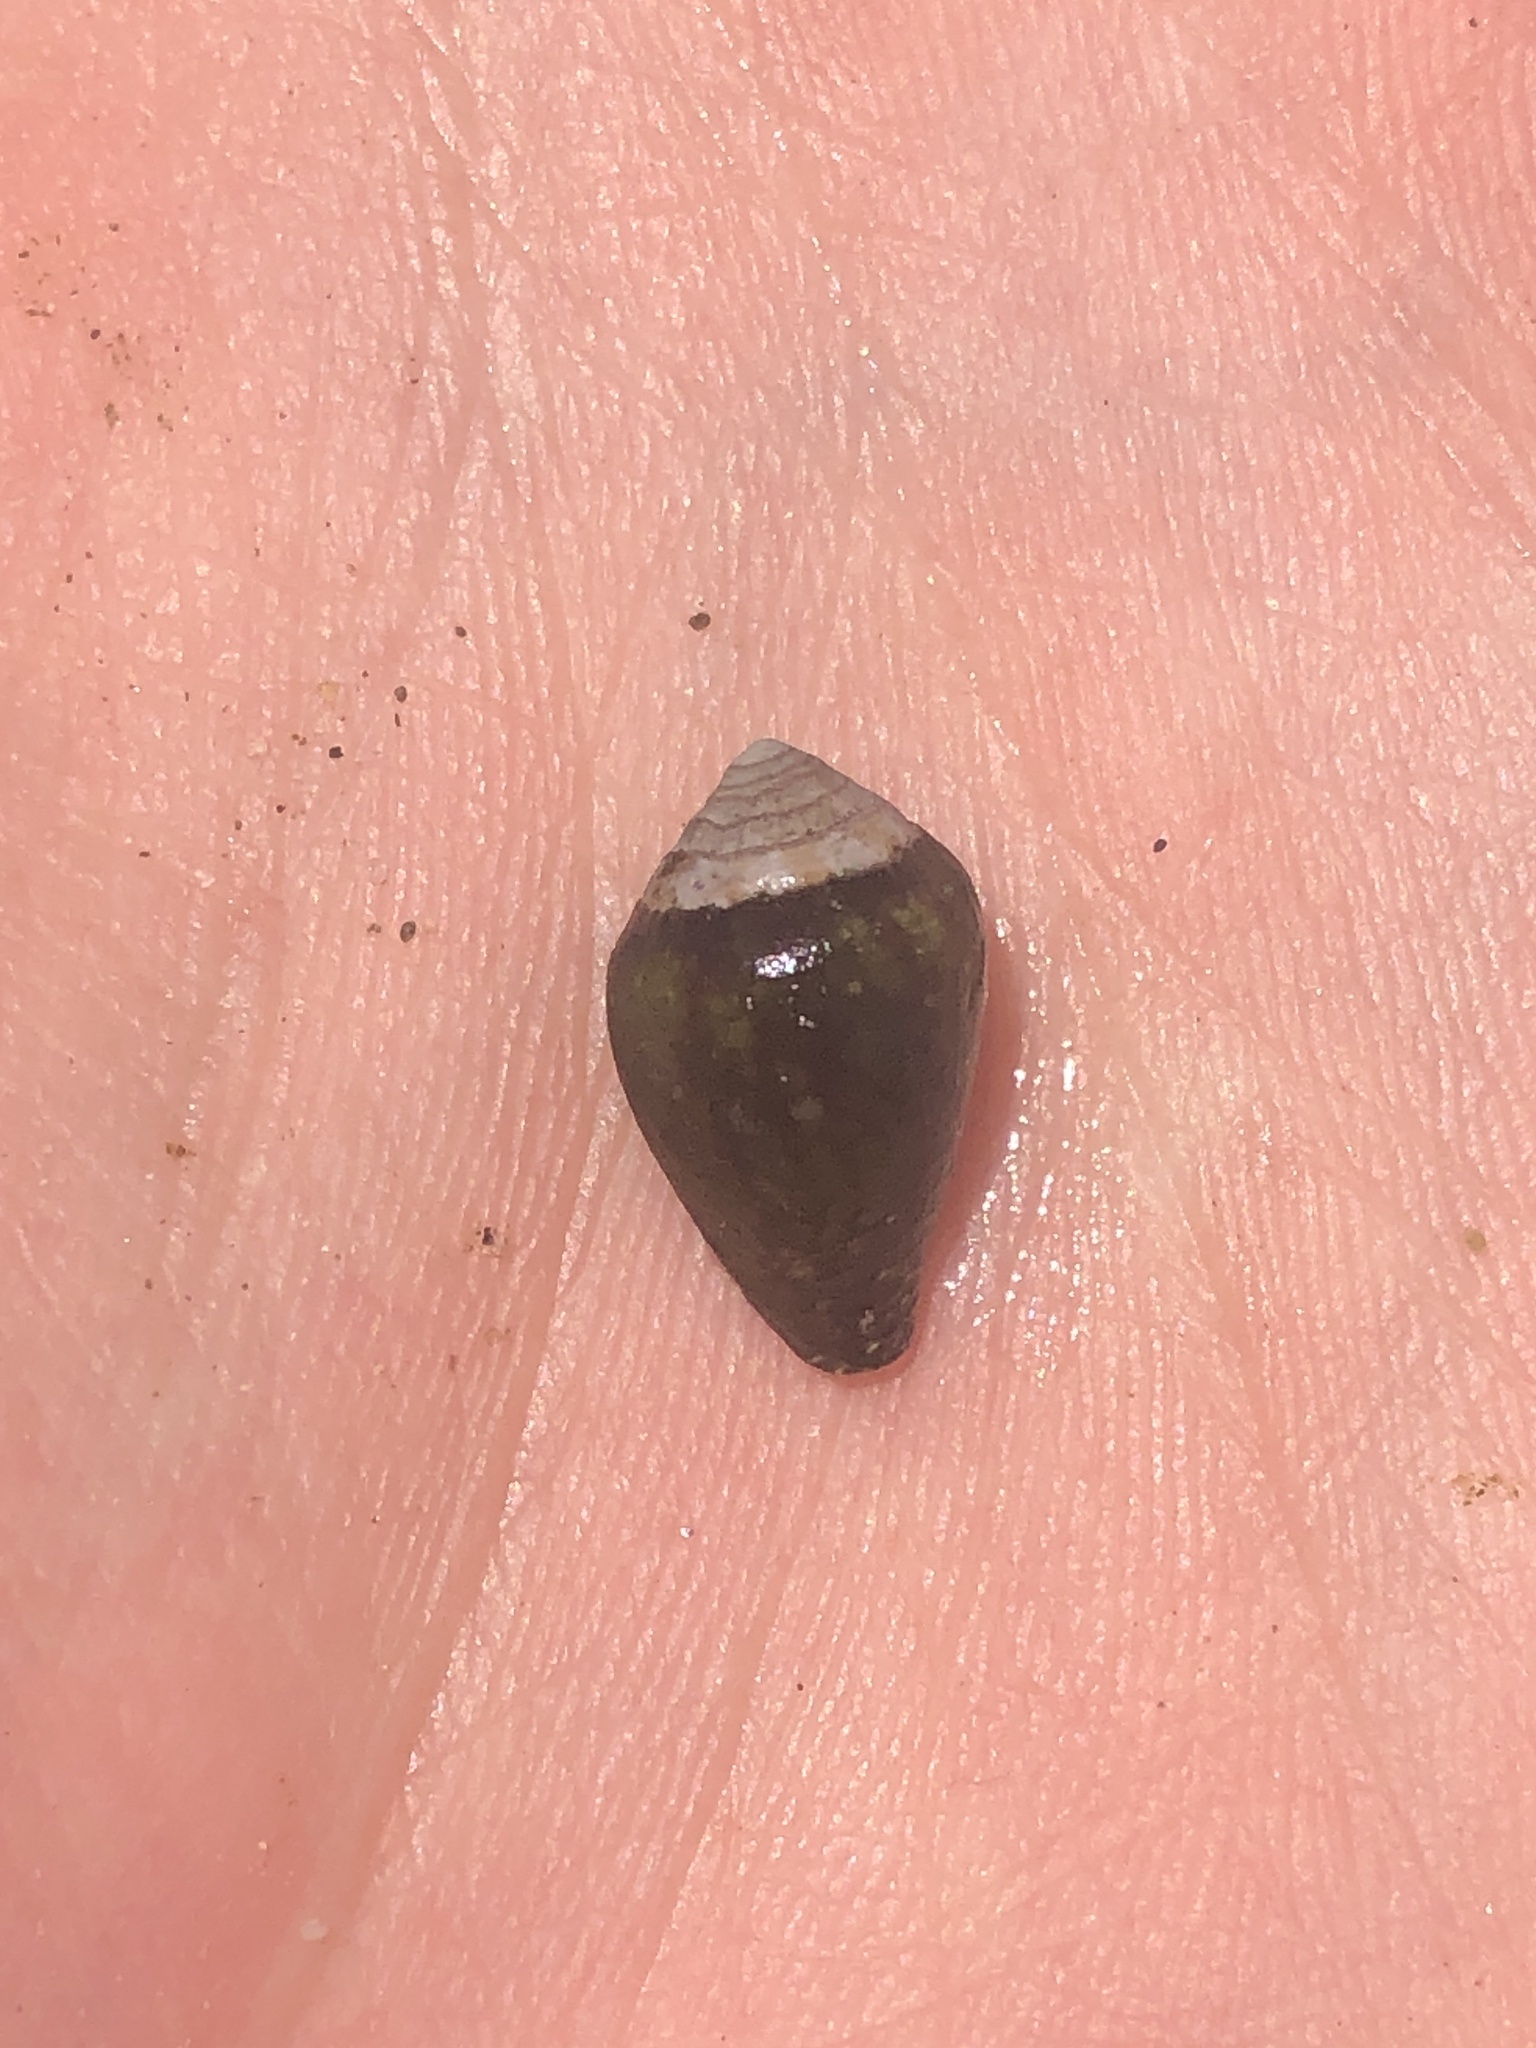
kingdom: Animalia
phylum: Mollusca
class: Gastropoda
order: Neogastropoda
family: Conidae
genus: Californiconus
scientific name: Californiconus californicus
